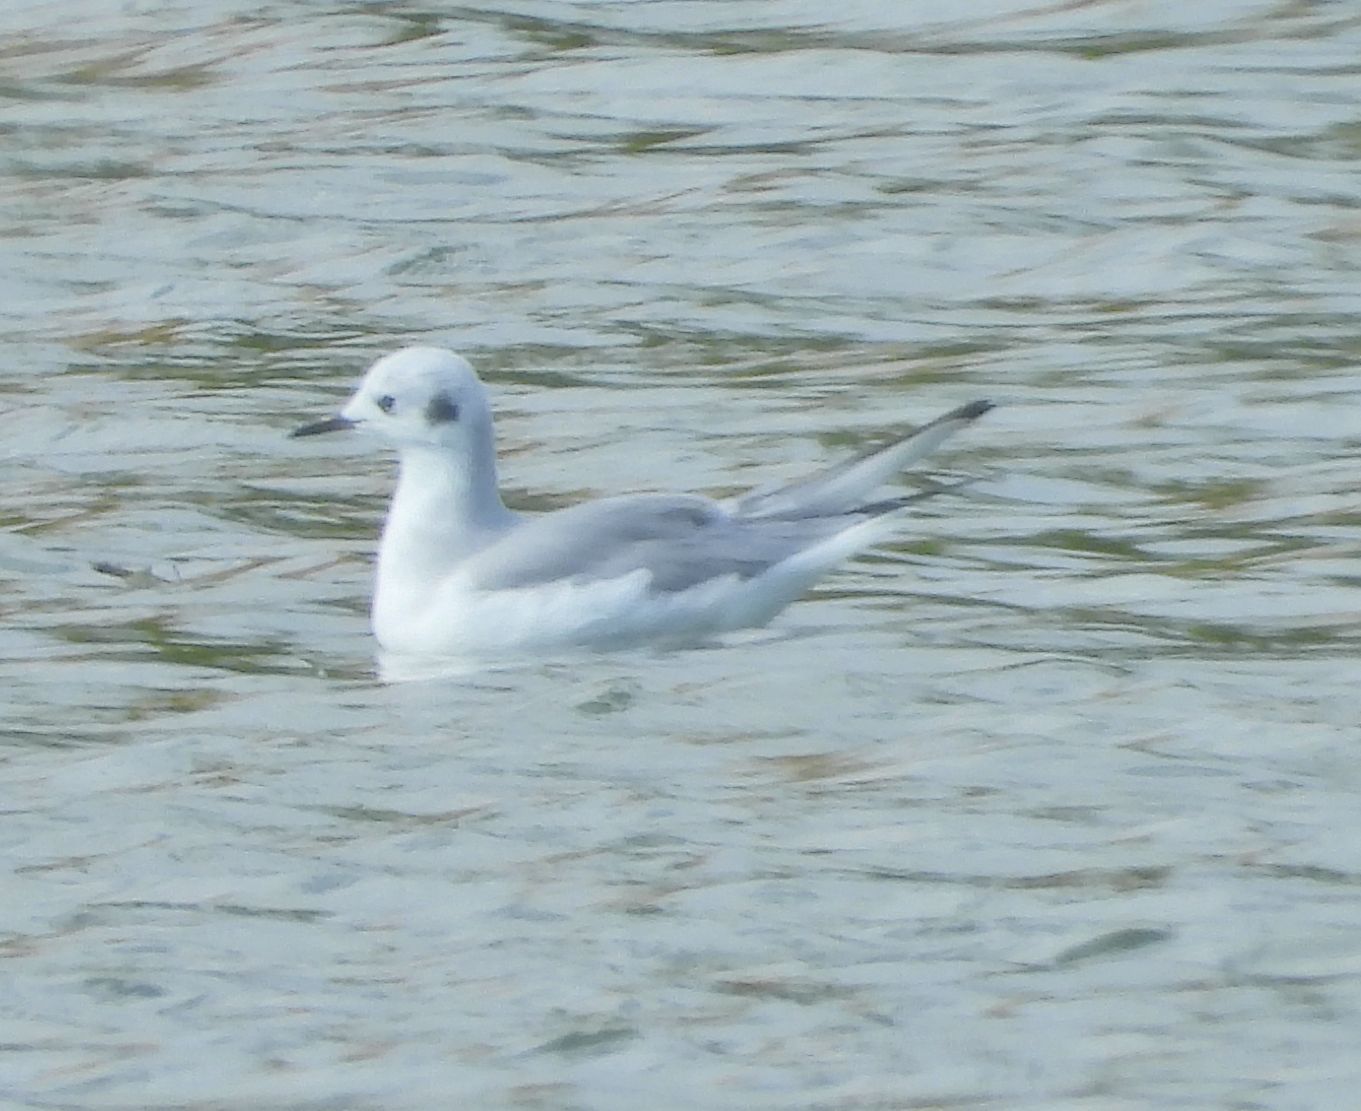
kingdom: Animalia
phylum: Chordata
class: Aves
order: Charadriiformes
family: Laridae
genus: Chroicocephalus
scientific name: Chroicocephalus philadelphia
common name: Bonaparte's gull
